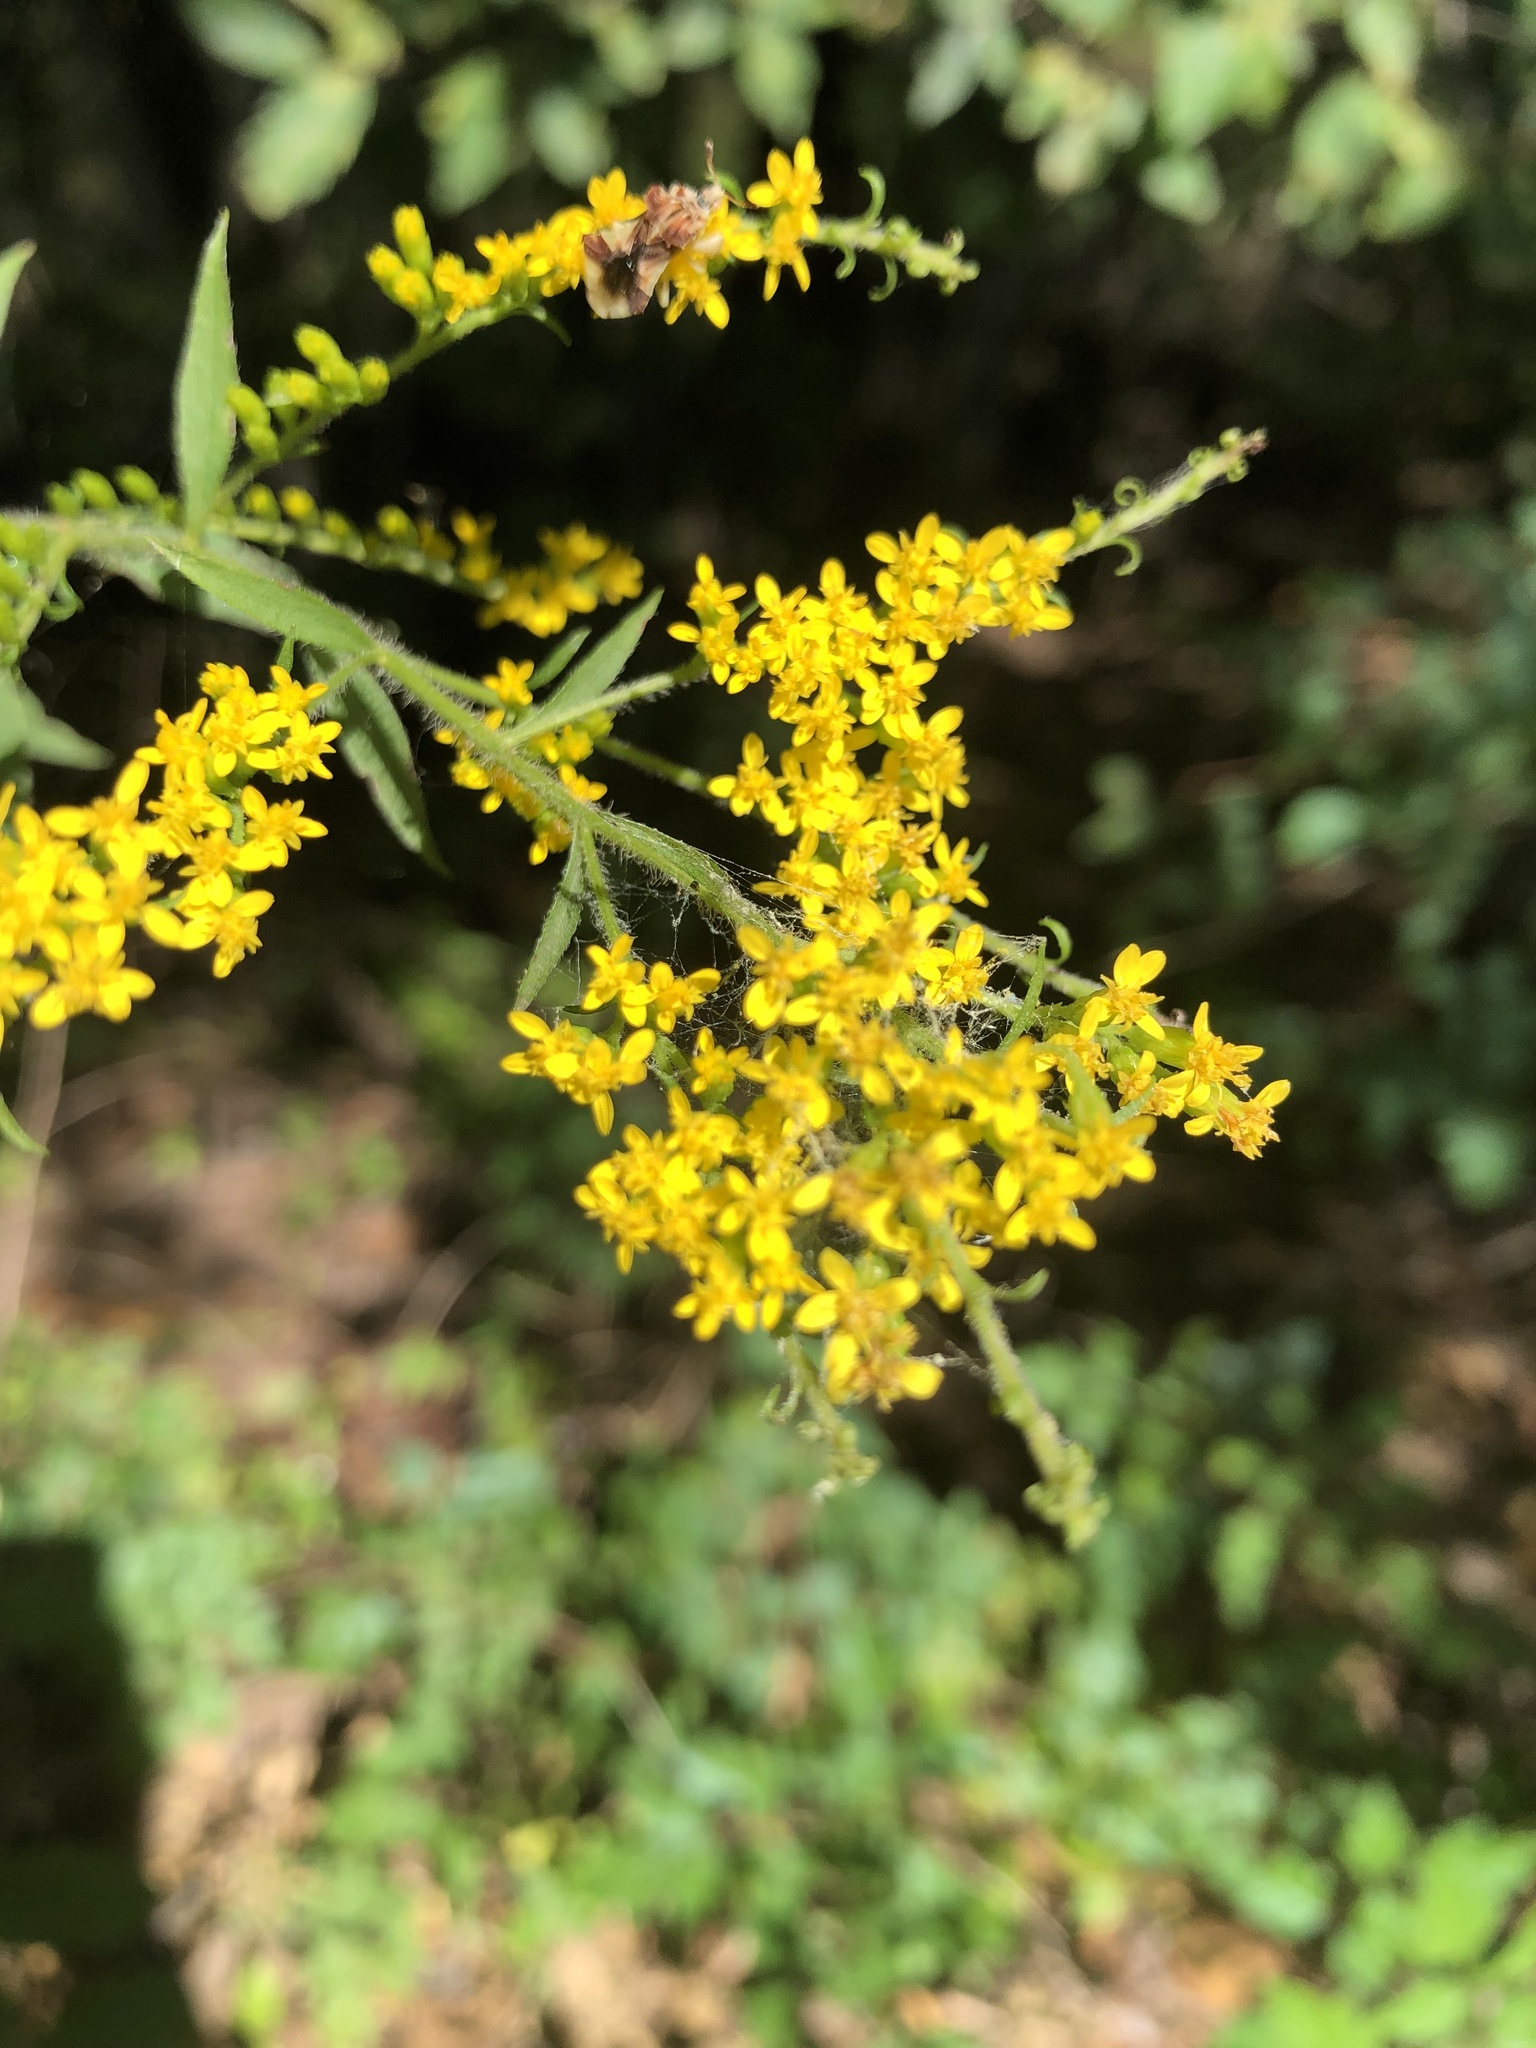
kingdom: Plantae
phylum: Tracheophyta
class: Magnoliopsida
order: Asterales
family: Asteraceae
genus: Solidago
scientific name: Solidago ulmifolia
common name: Elm-leaf goldenrod
